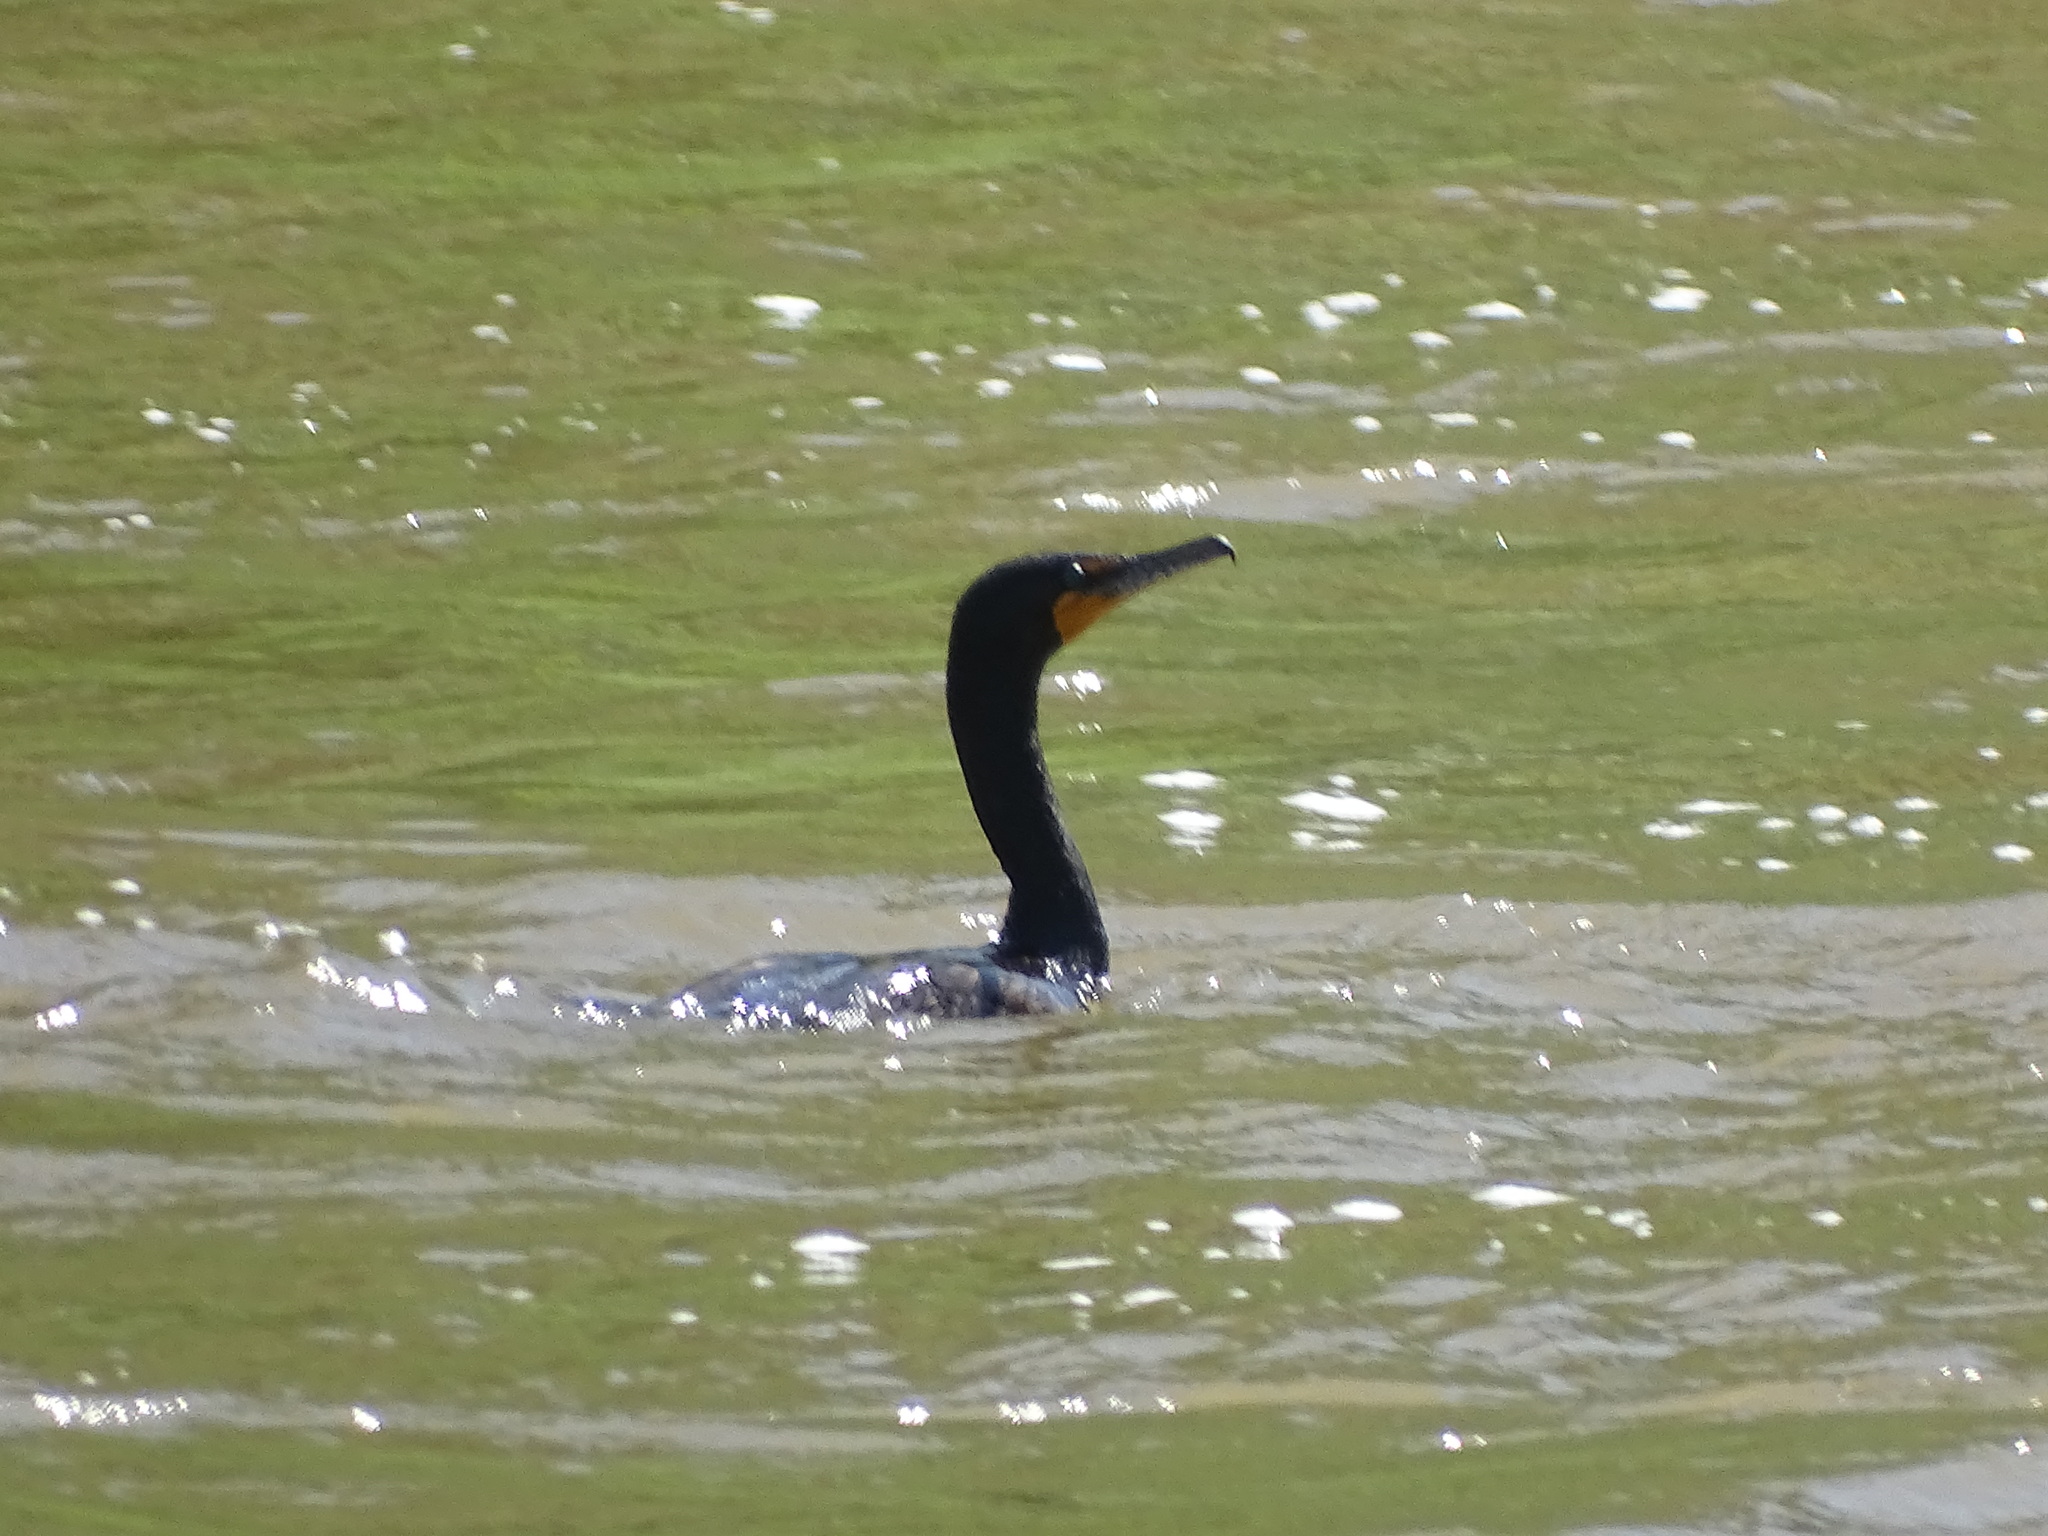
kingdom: Animalia
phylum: Chordata
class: Aves
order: Suliformes
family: Phalacrocoracidae
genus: Phalacrocorax
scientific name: Phalacrocorax auritus
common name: Double-crested cormorant
